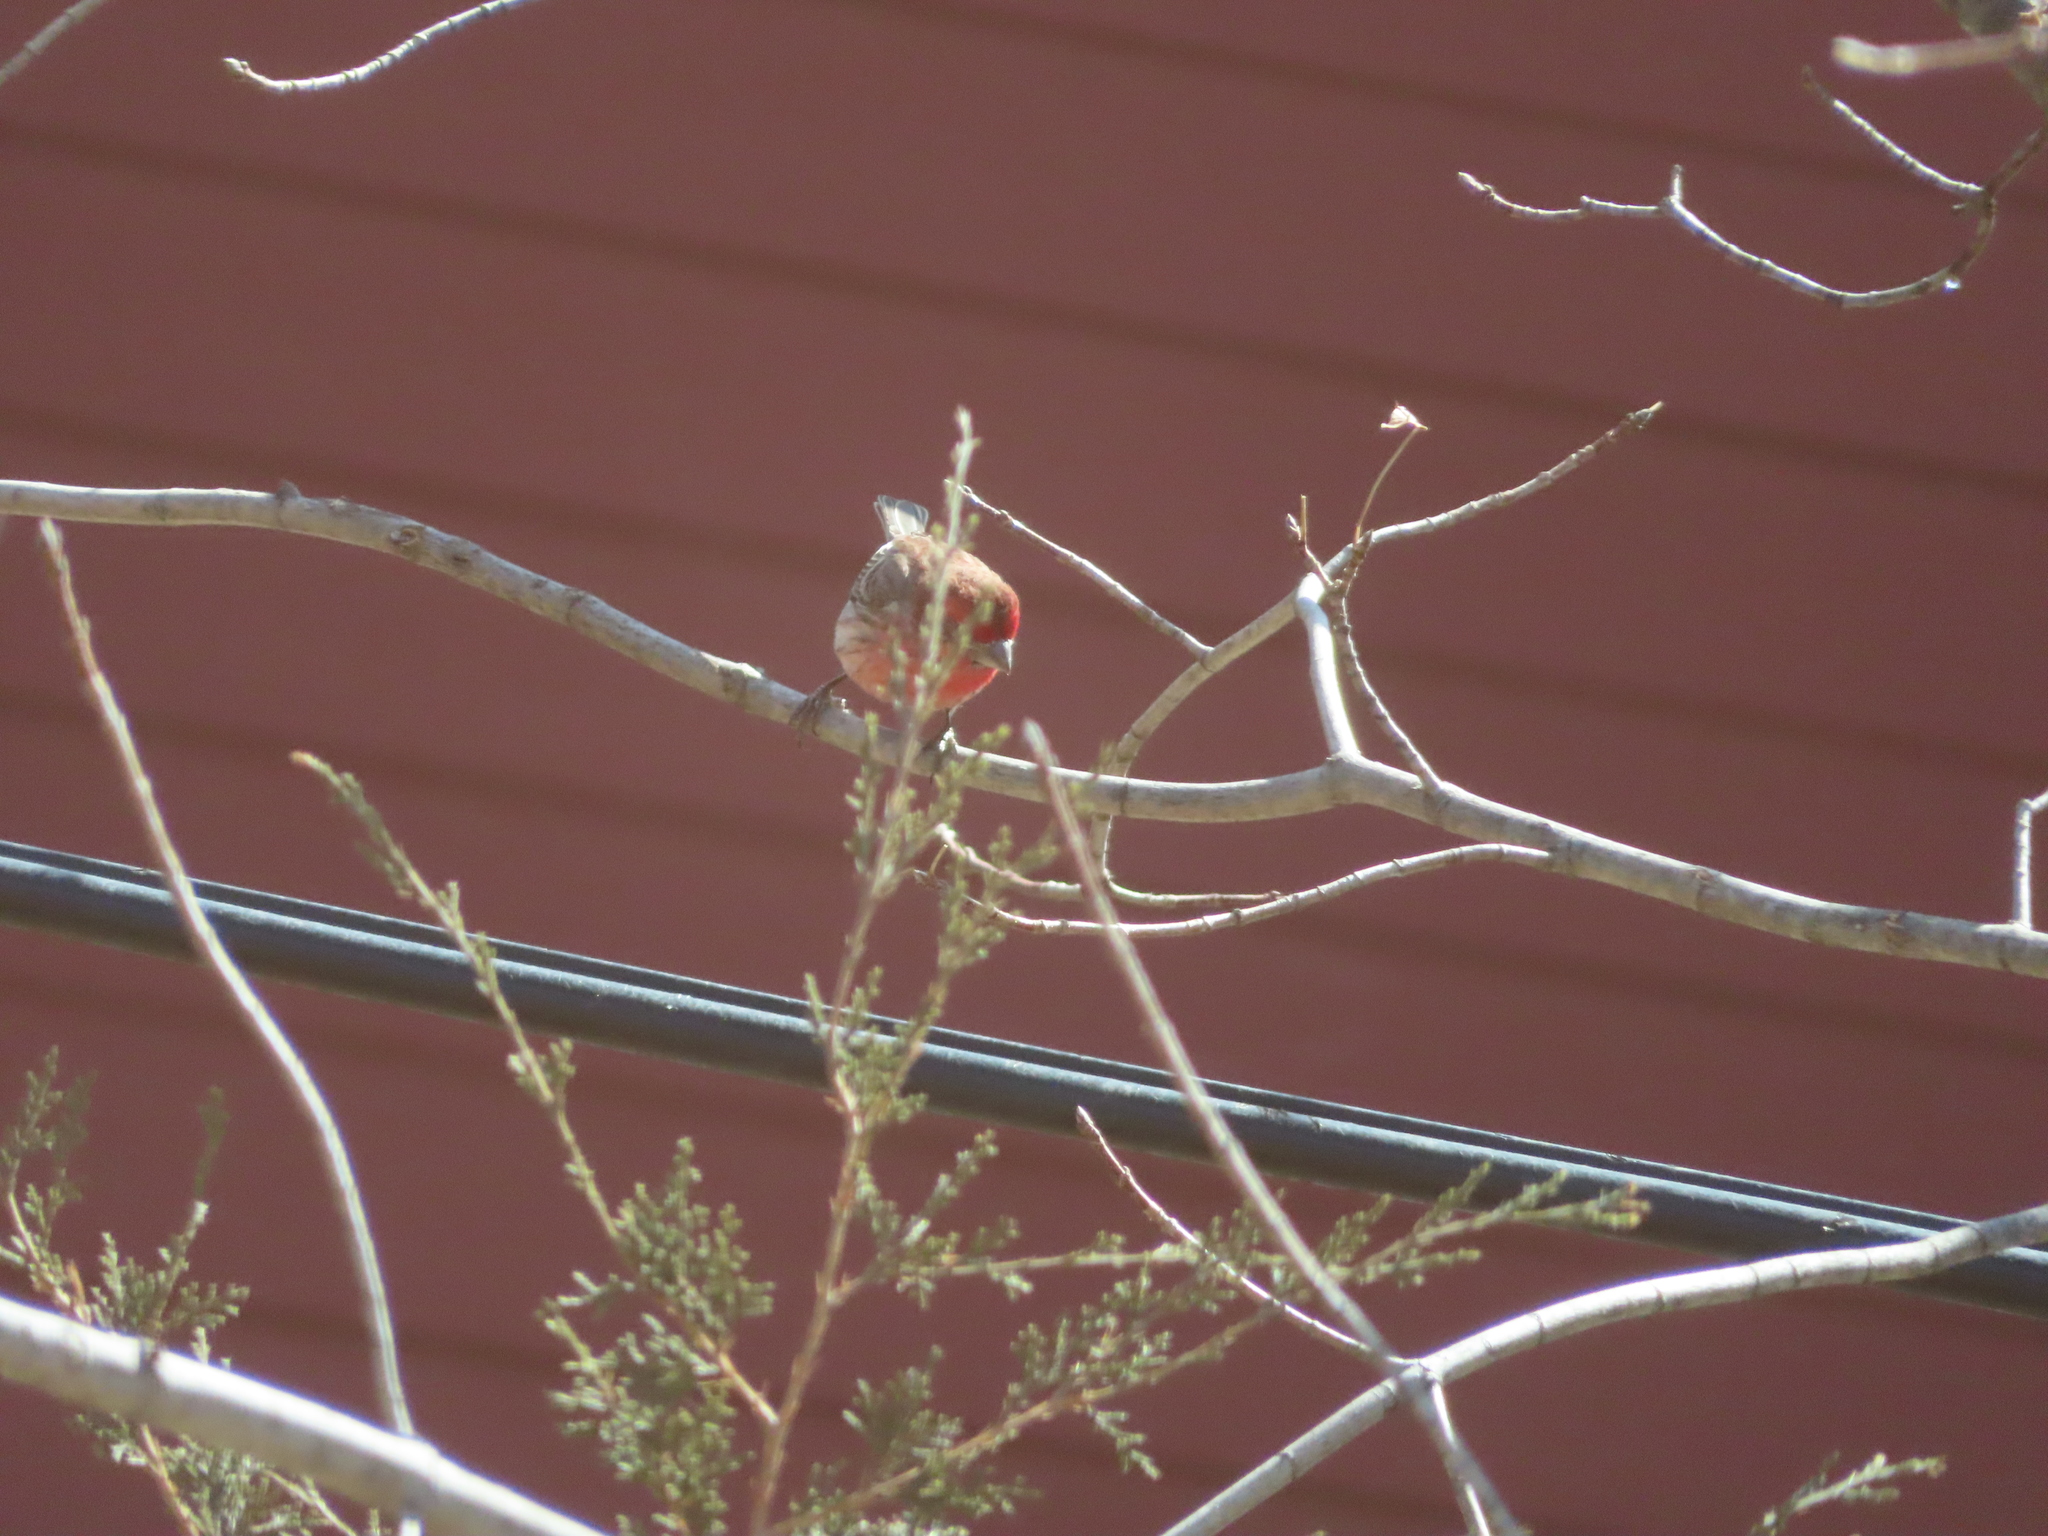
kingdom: Animalia
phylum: Chordata
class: Aves
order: Passeriformes
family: Fringillidae
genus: Haemorhous
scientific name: Haemorhous mexicanus
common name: House finch
